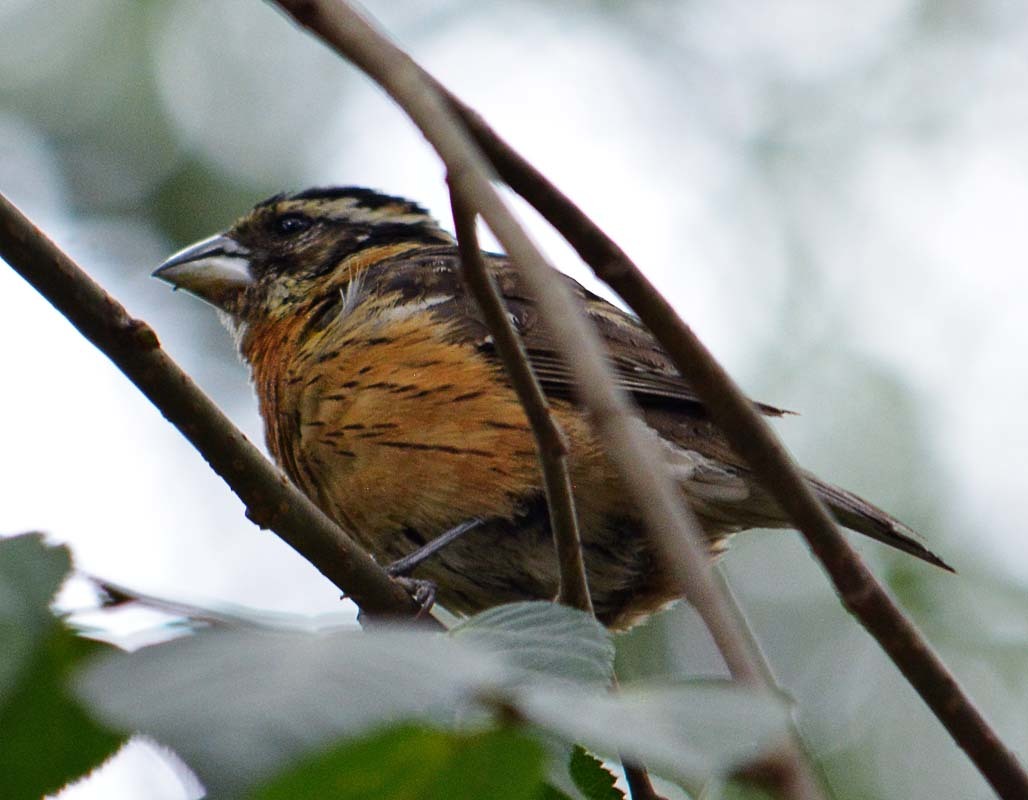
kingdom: Animalia
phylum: Chordata
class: Aves
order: Passeriformes
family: Cardinalidae
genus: Pheucticus
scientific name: Pheucticus melanocephalus
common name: Black-headed grosbeak
